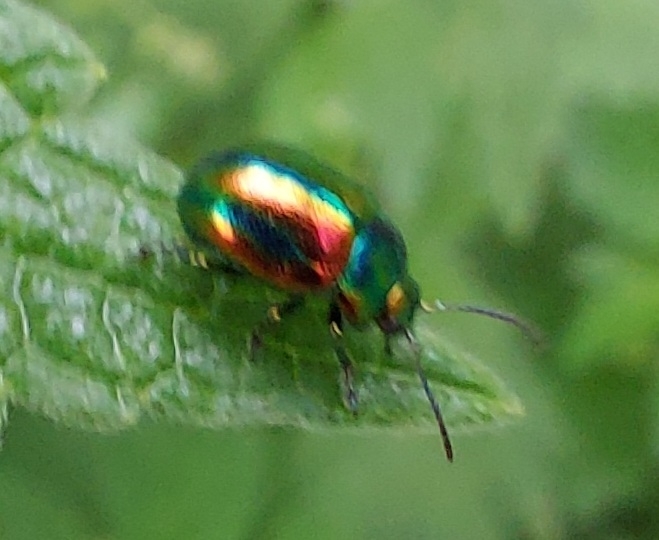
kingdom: Animalia
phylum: Arthropoda
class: Insecta
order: Coleoptera
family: Chrysomelidae
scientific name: Chrysomelidae
